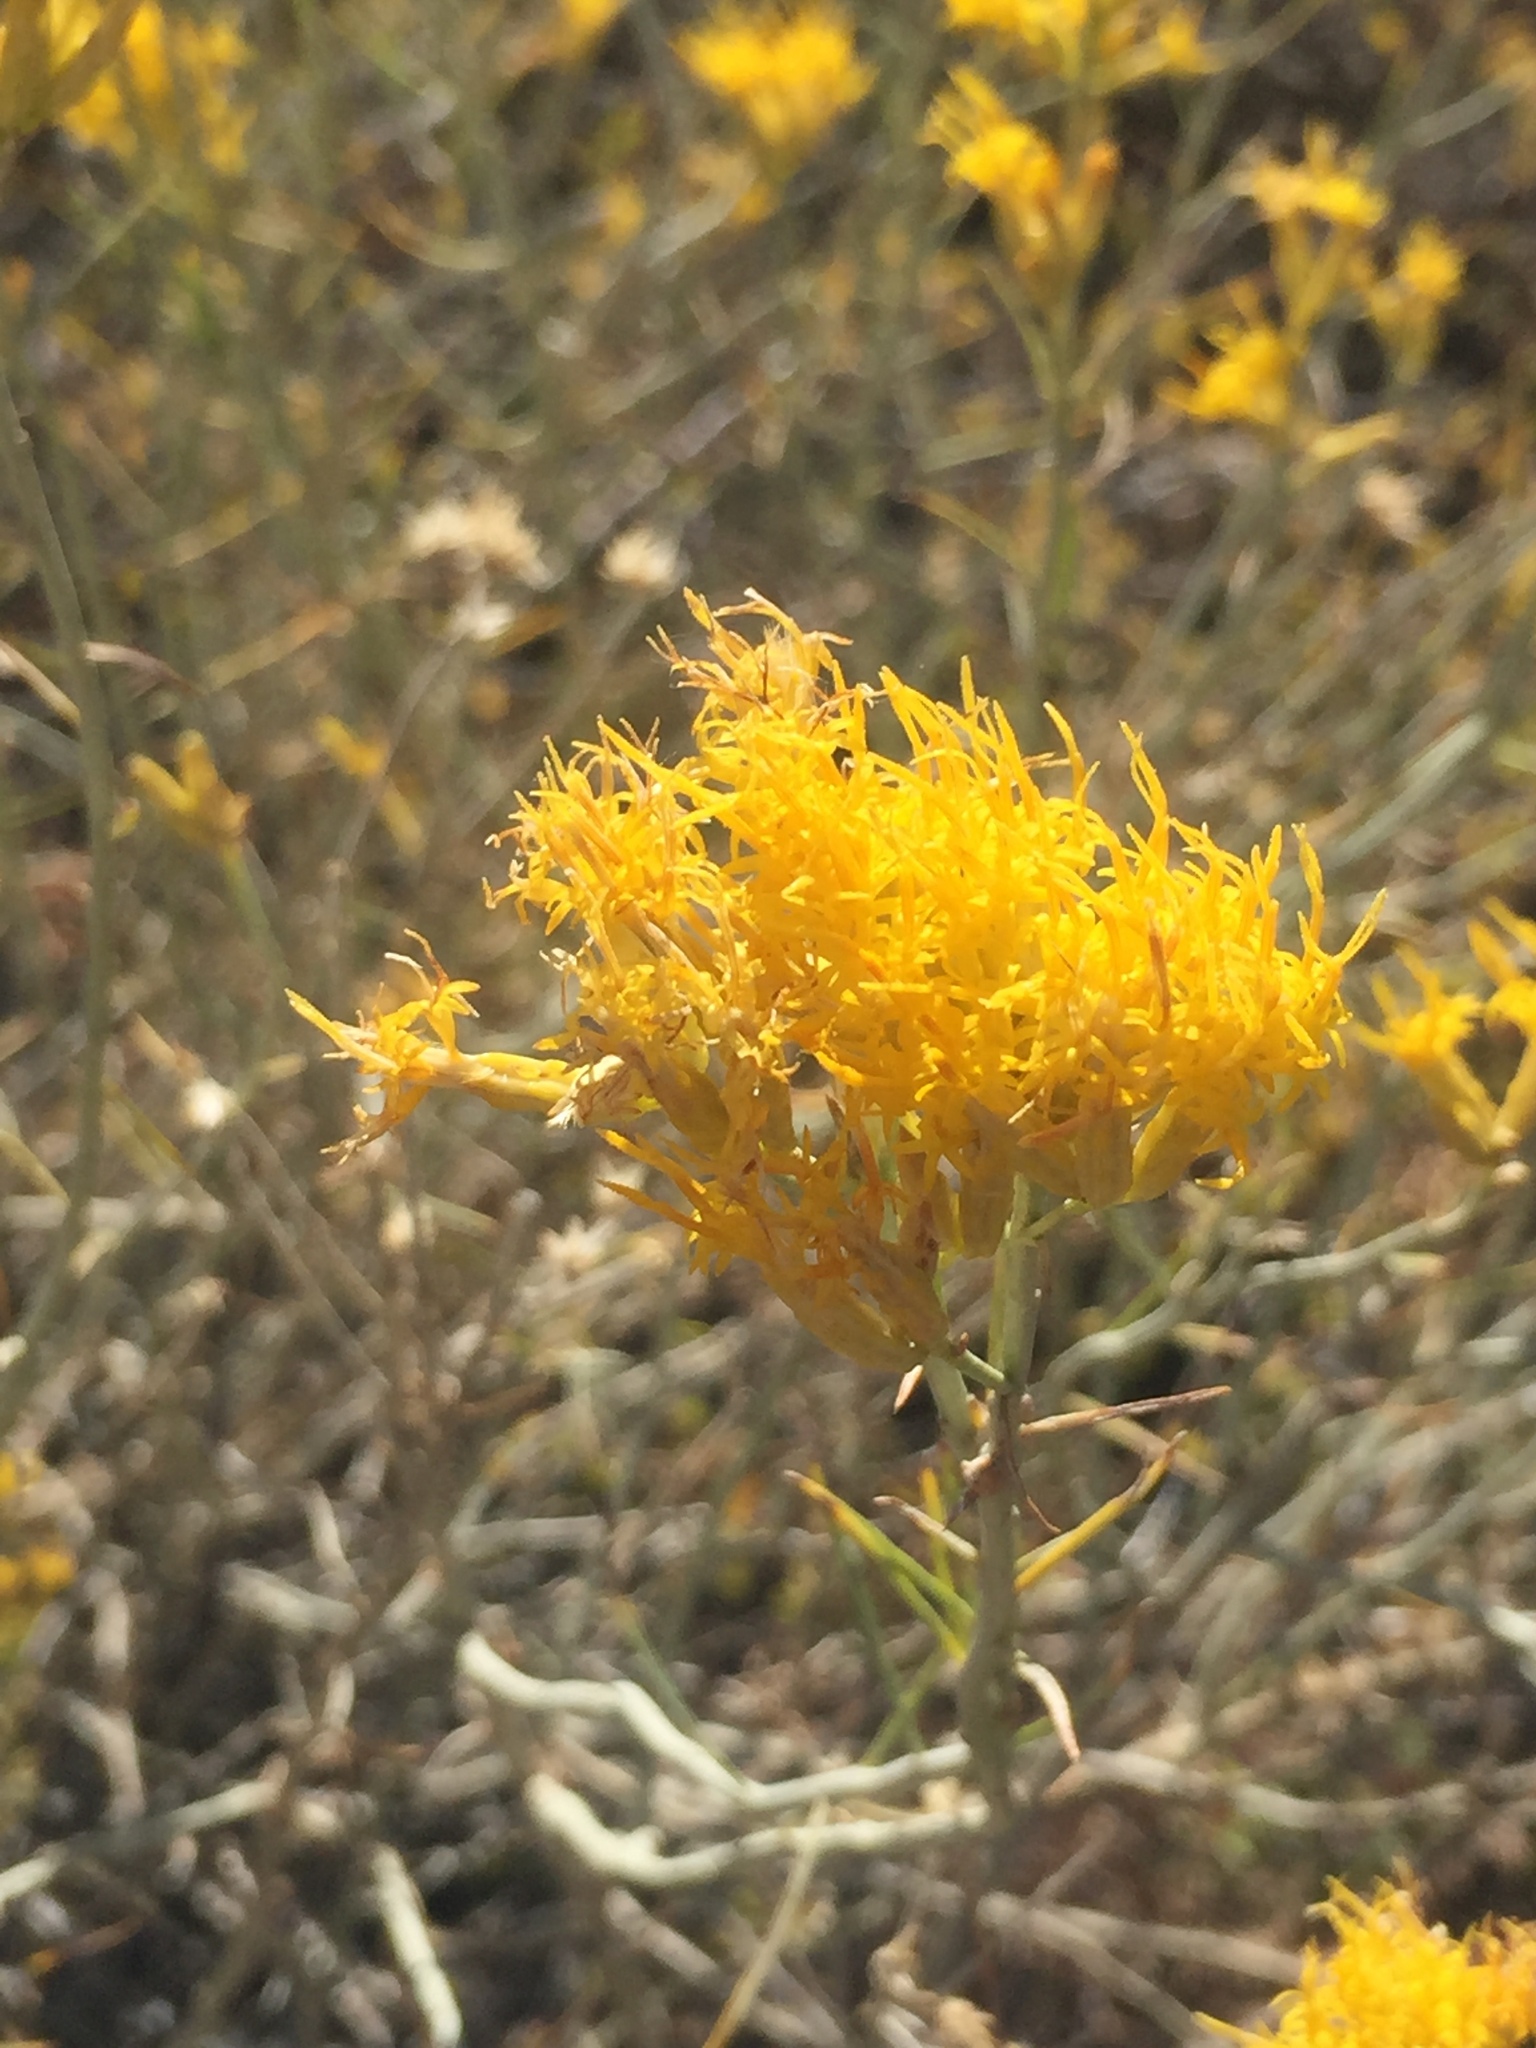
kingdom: Plantae
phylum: Tracheophyta
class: Magnoliopsida
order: Asterales
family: Asteraceae
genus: Ericameria
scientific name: Ericameria nauseosa
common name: Rubber rabbitbrush
